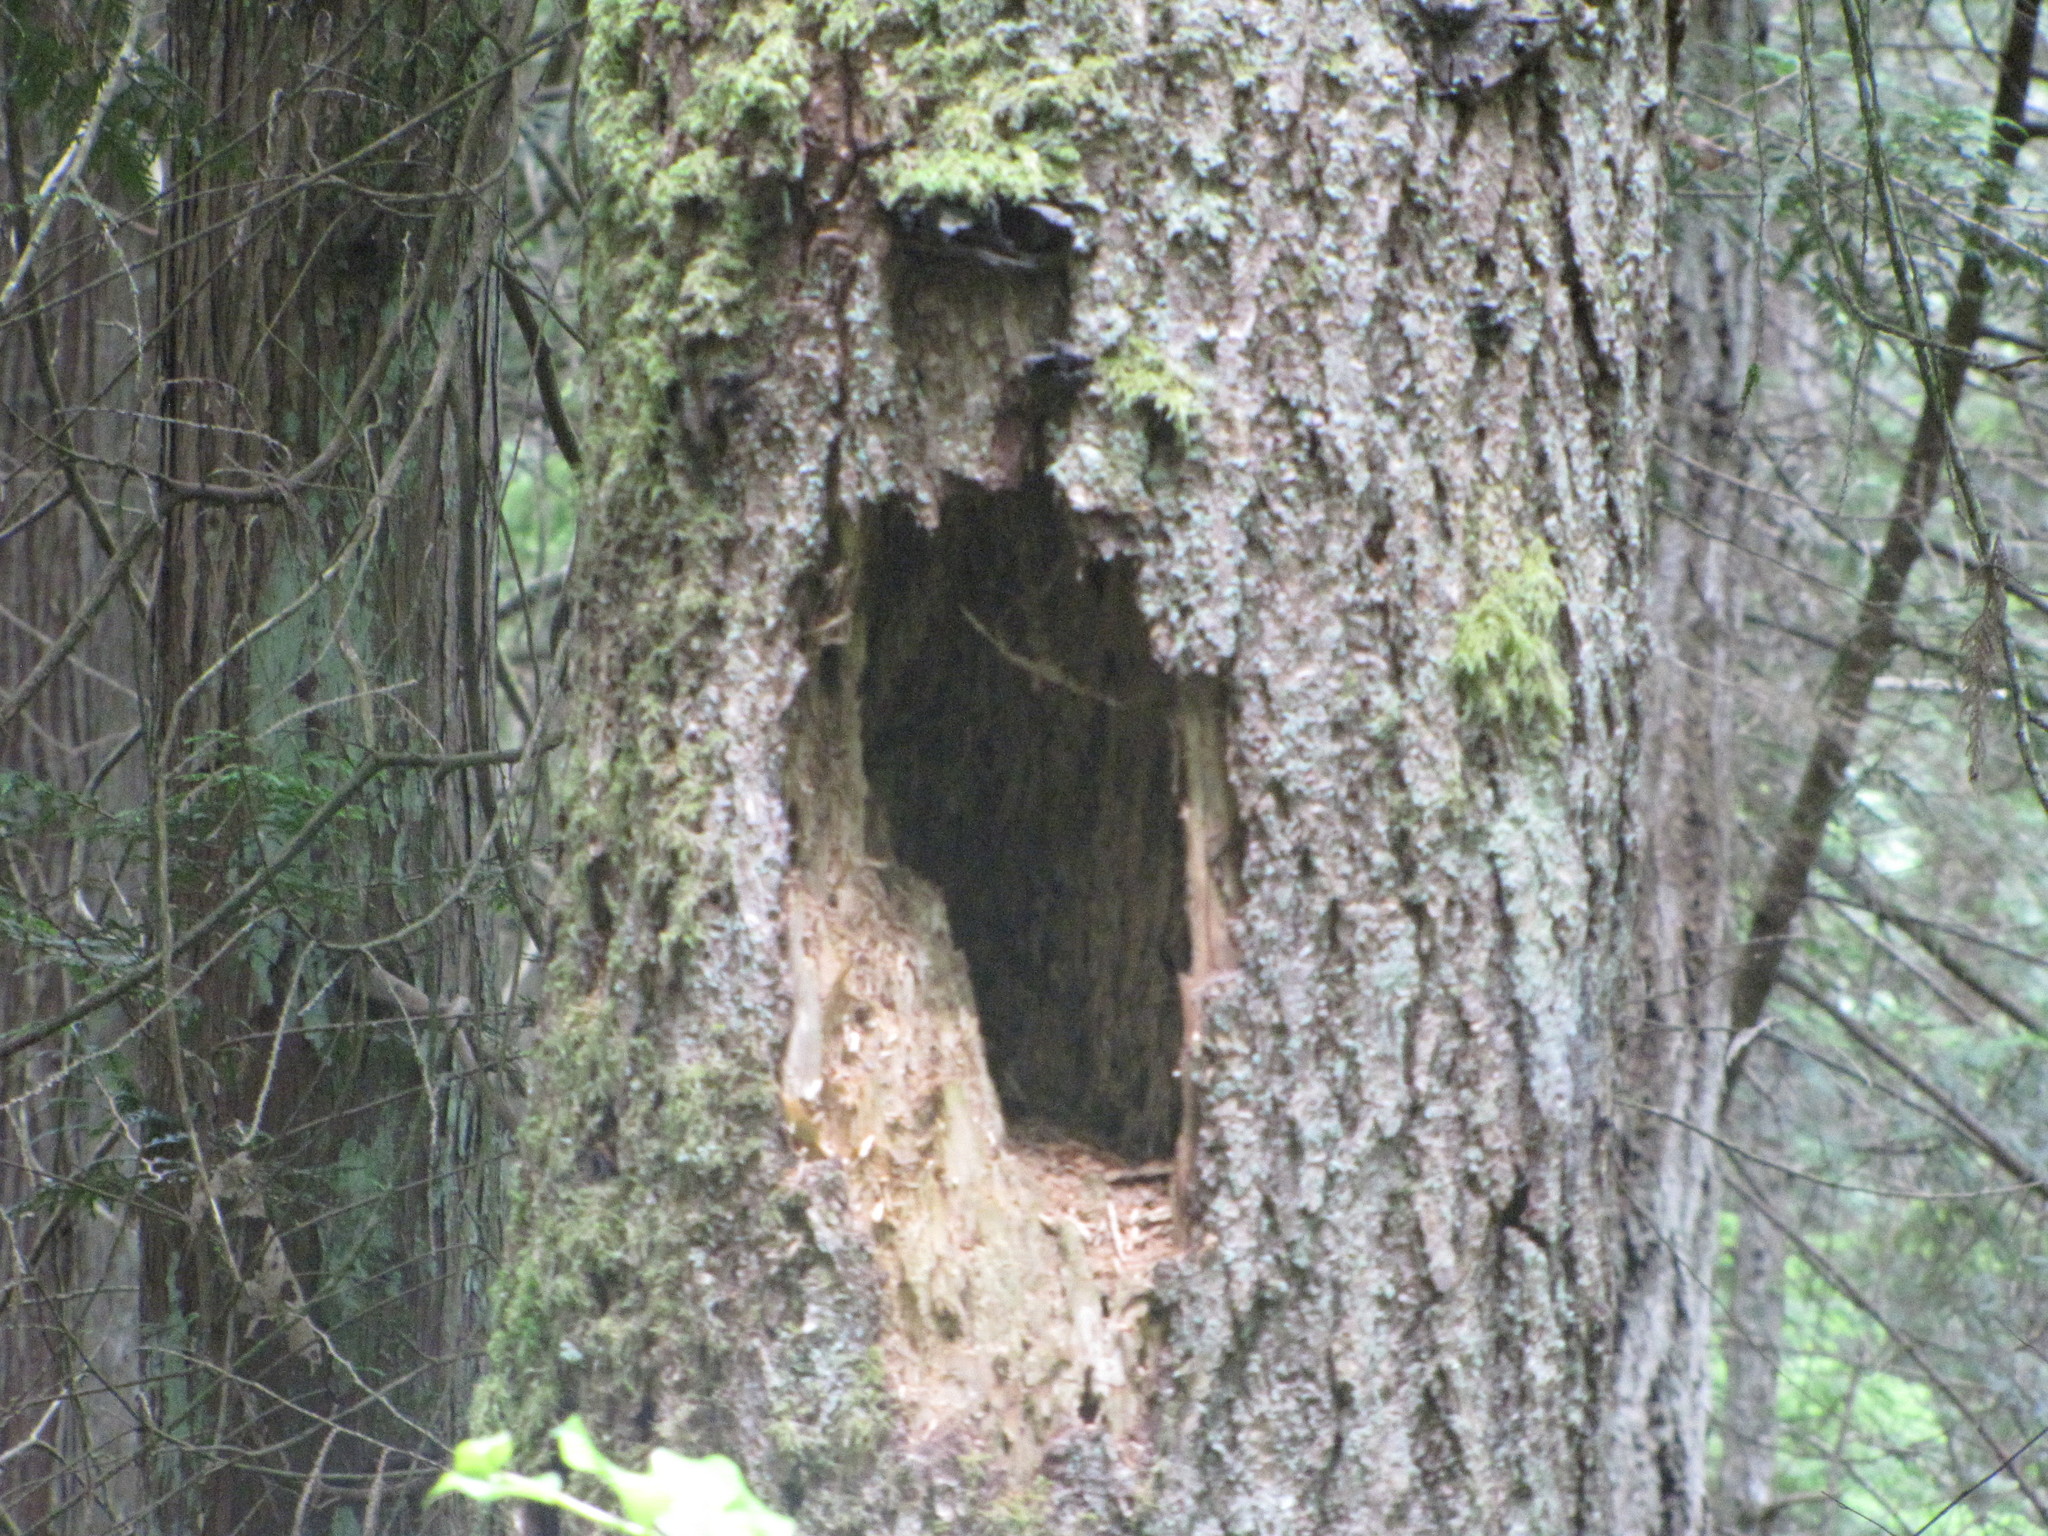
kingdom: Animalia
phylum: Chordata
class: Aves
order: Piciformes
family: Picidae
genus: Dryocopus
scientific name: Dryocopus pileatus
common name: Pileated woodpecker
